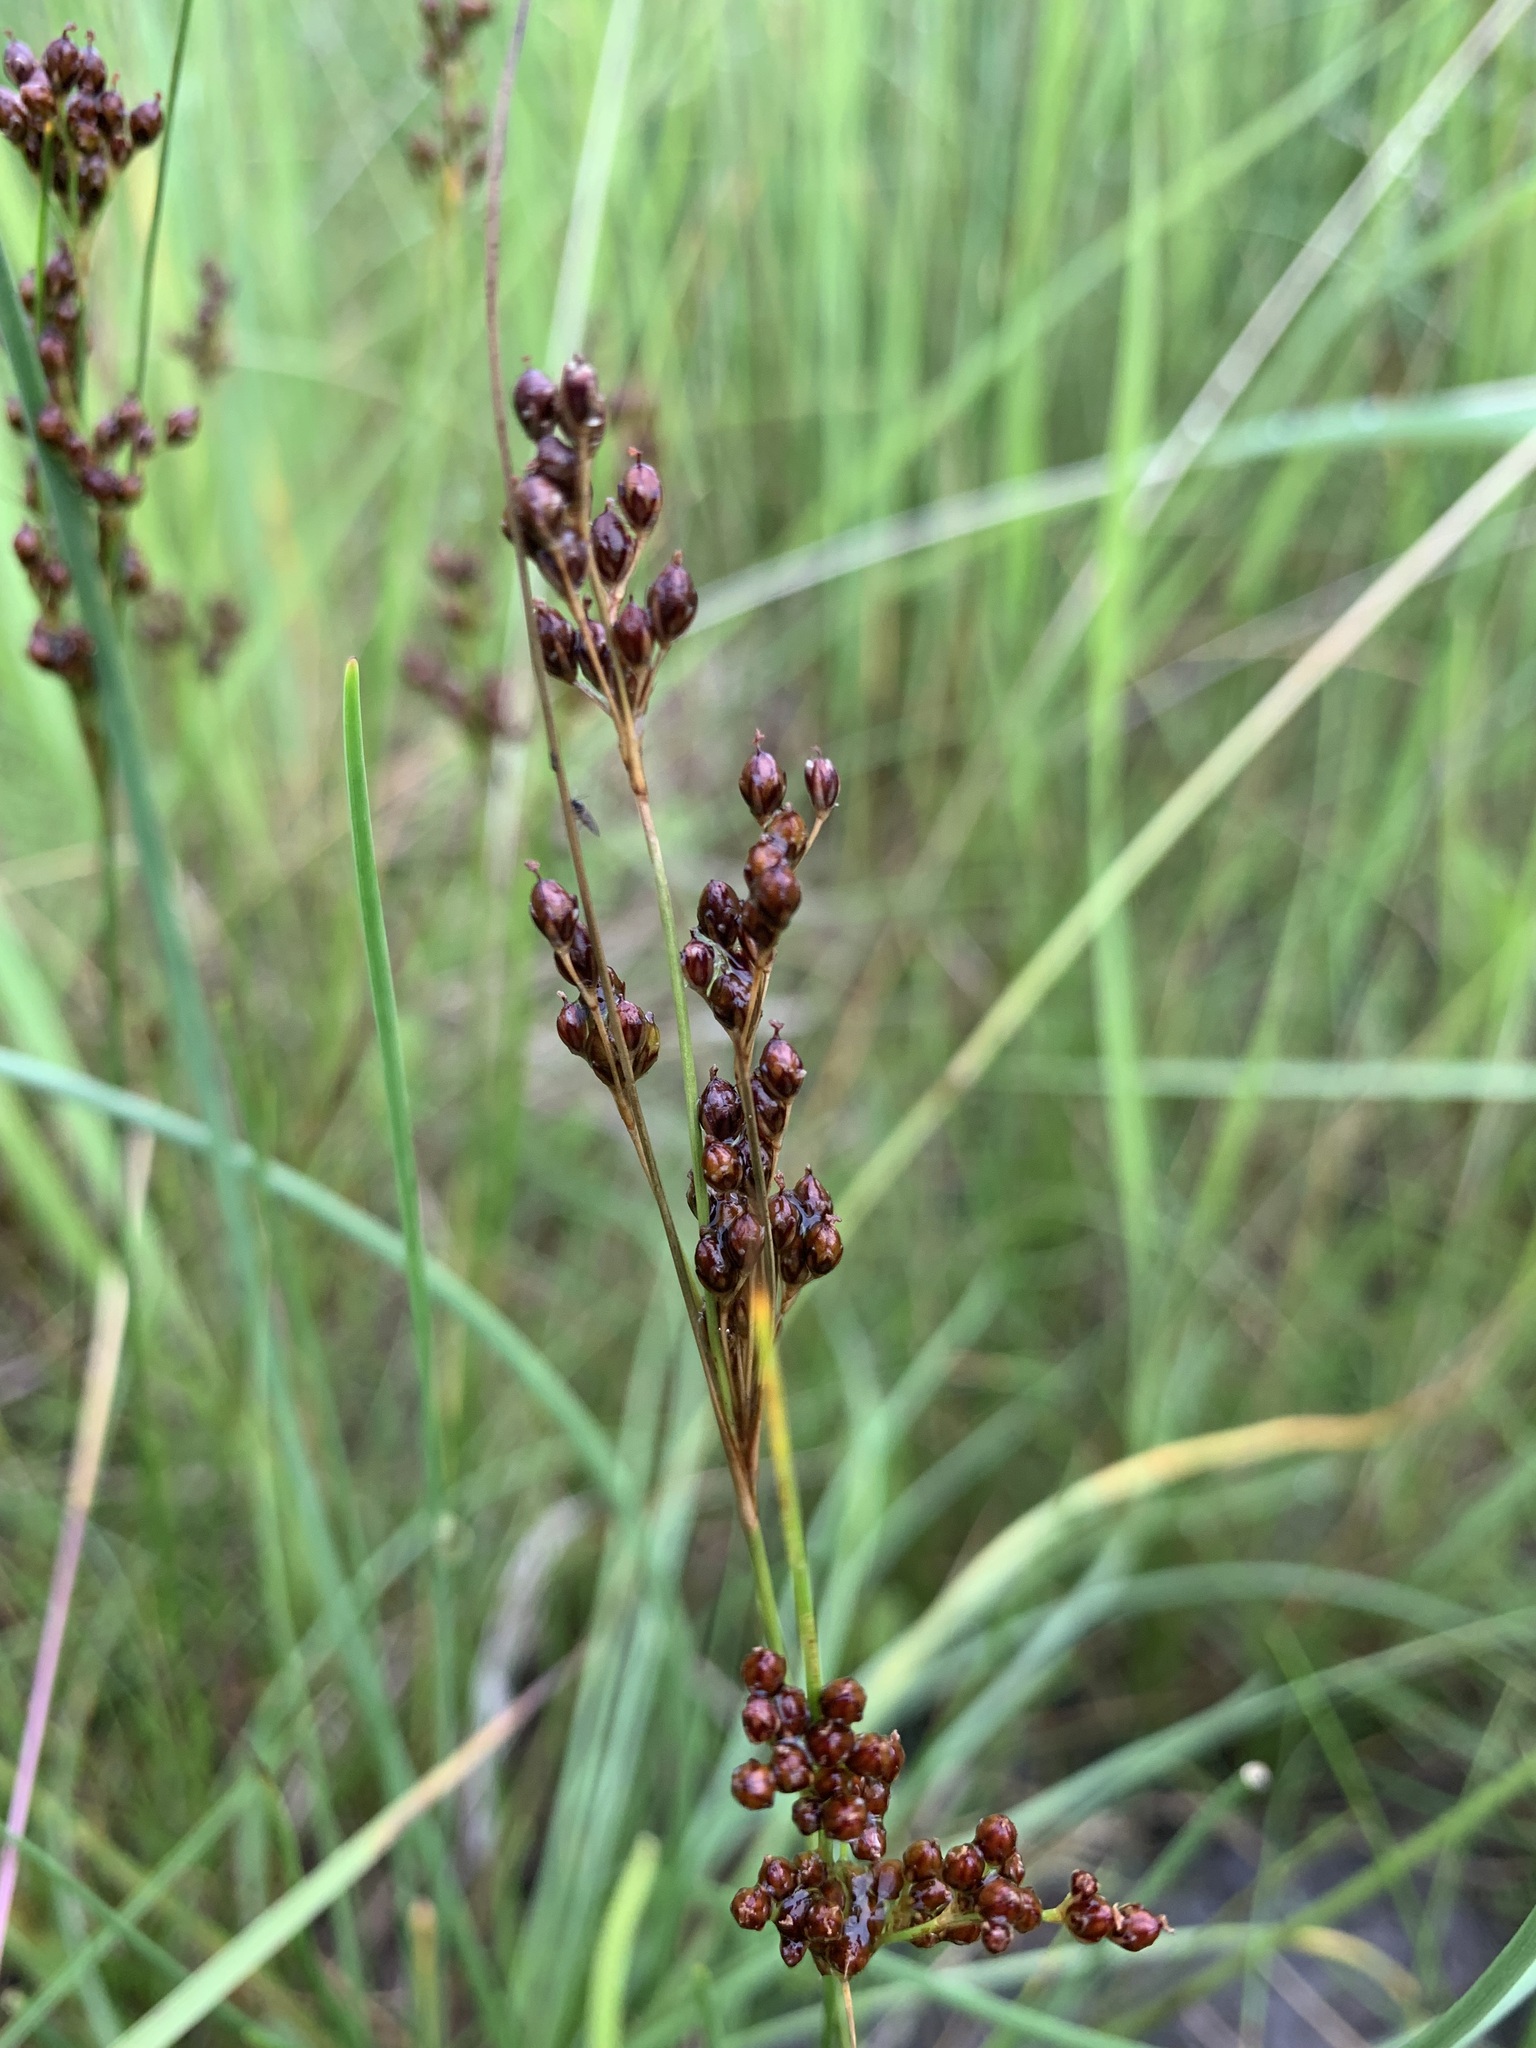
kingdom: Plantae
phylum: Tracheophyta
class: Liliopsida
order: Poales
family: Juncaceae
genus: Juncus
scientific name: Juncus compressus
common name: Round-fruited rush
